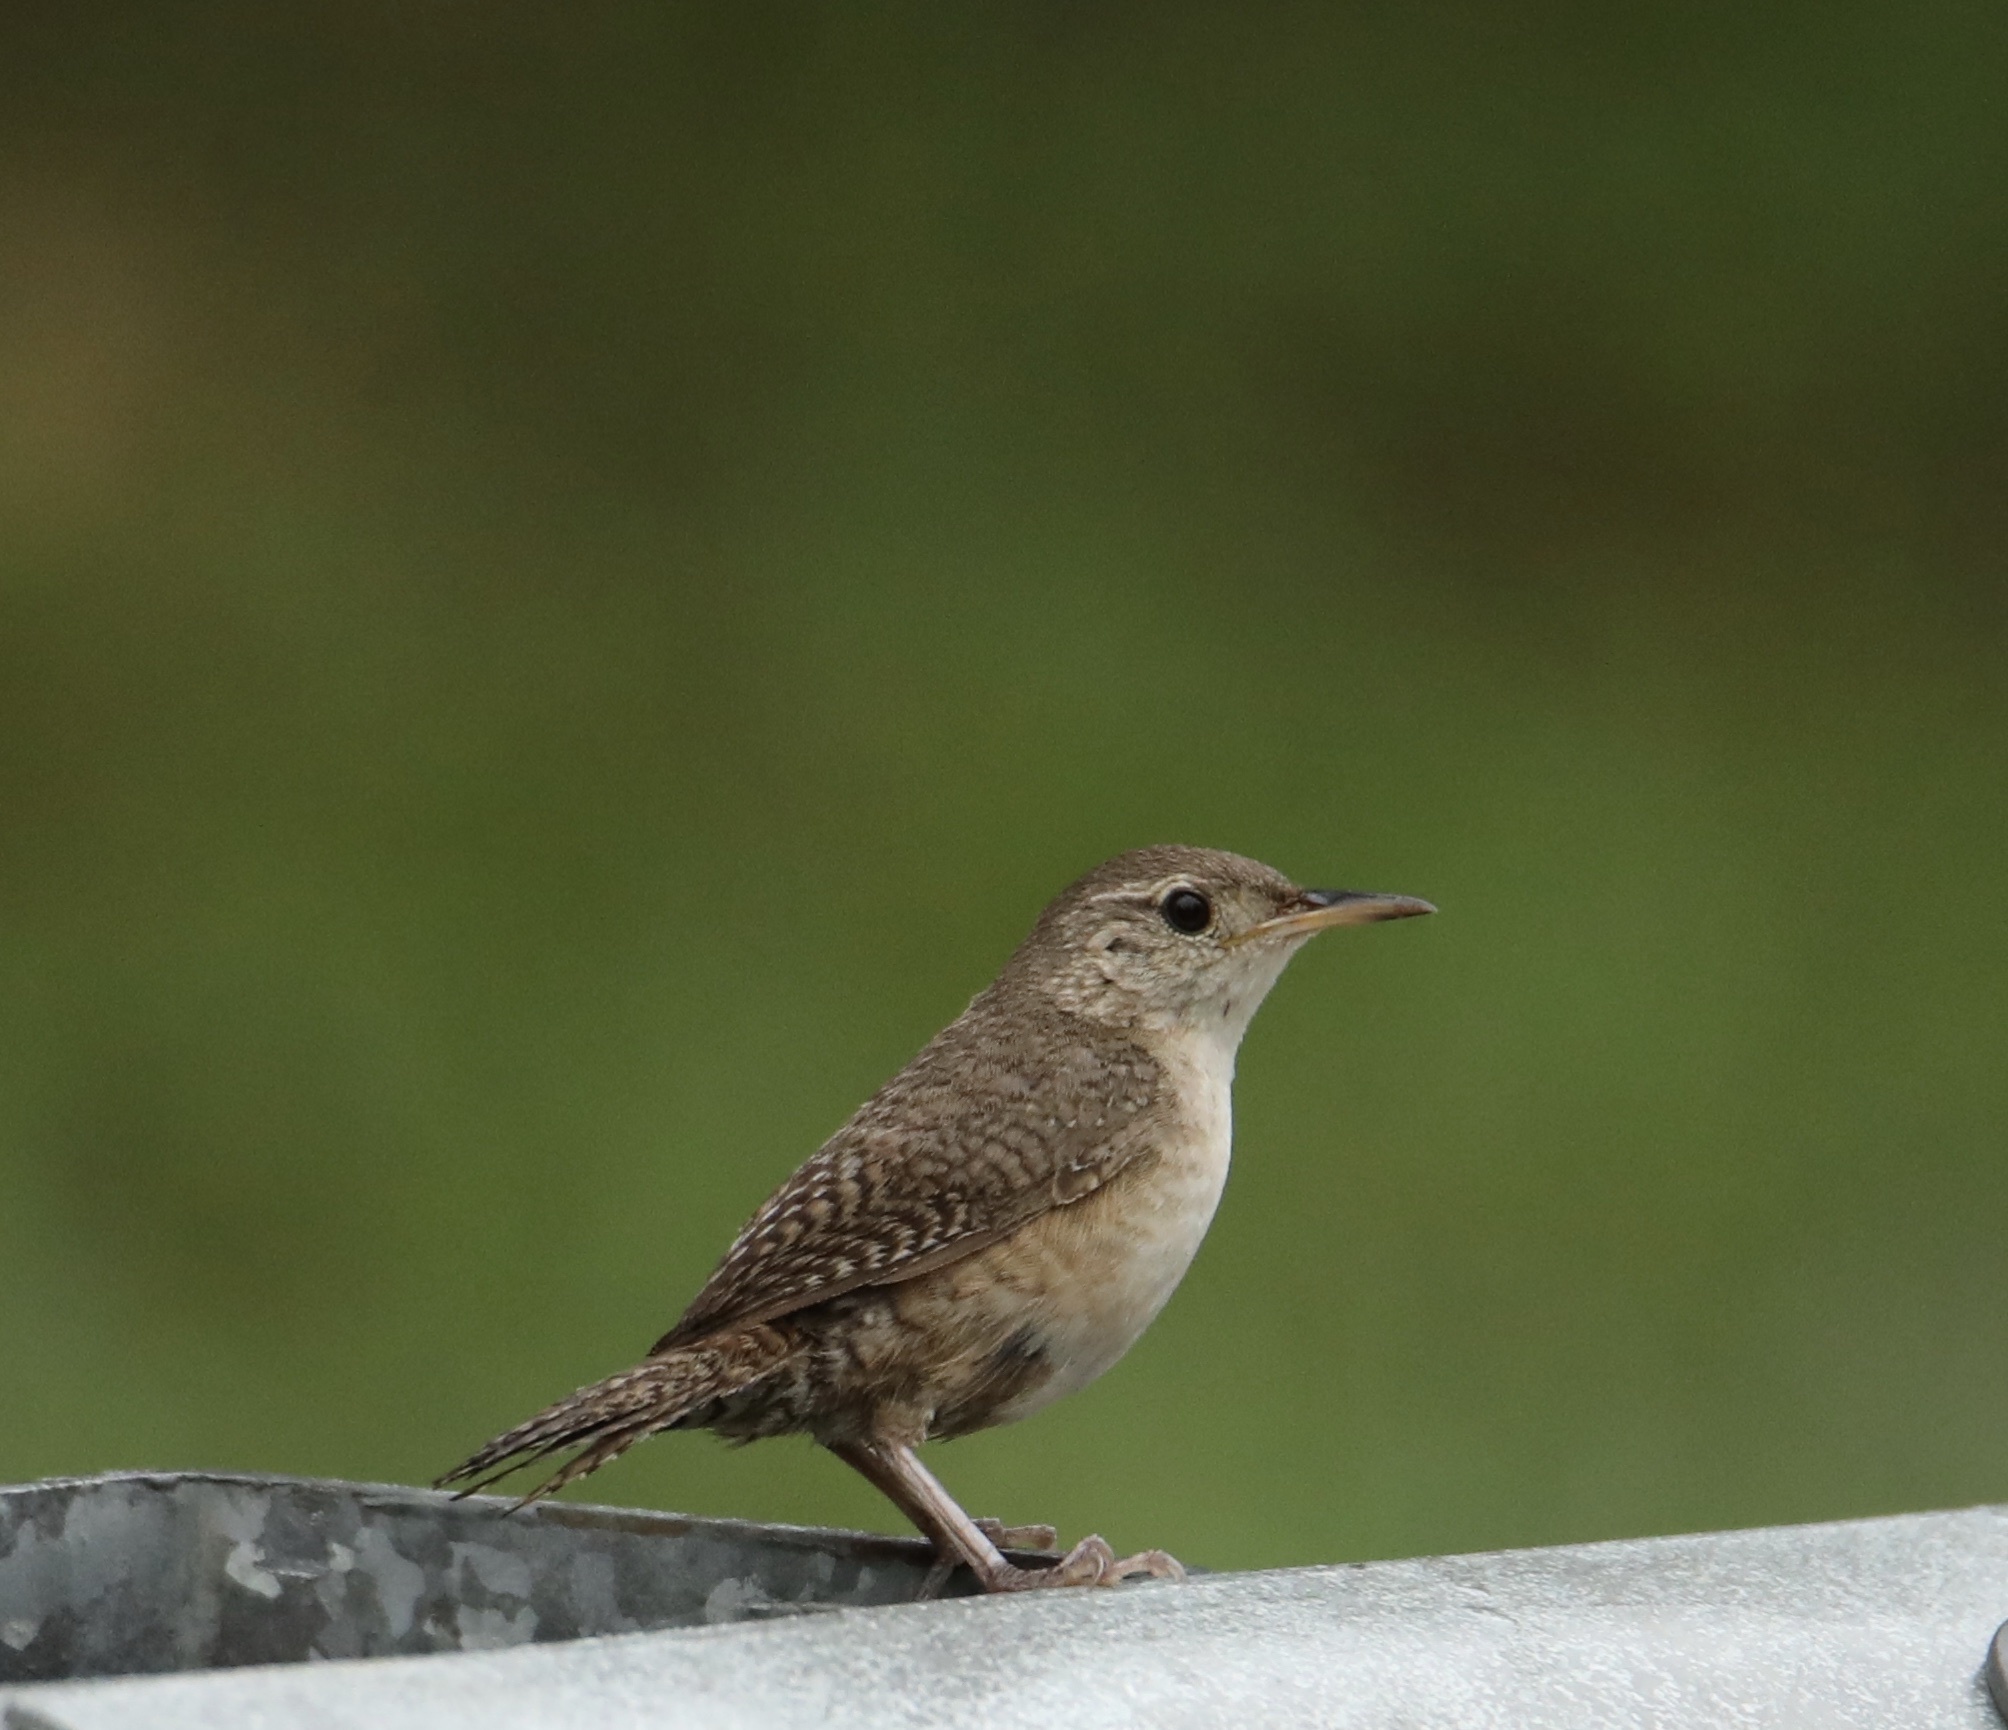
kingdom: Animalia
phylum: Chordata
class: Aves
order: Passeriformes
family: Troglodytidae
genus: Troglodytes
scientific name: Troglodytes aedon
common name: House wren
